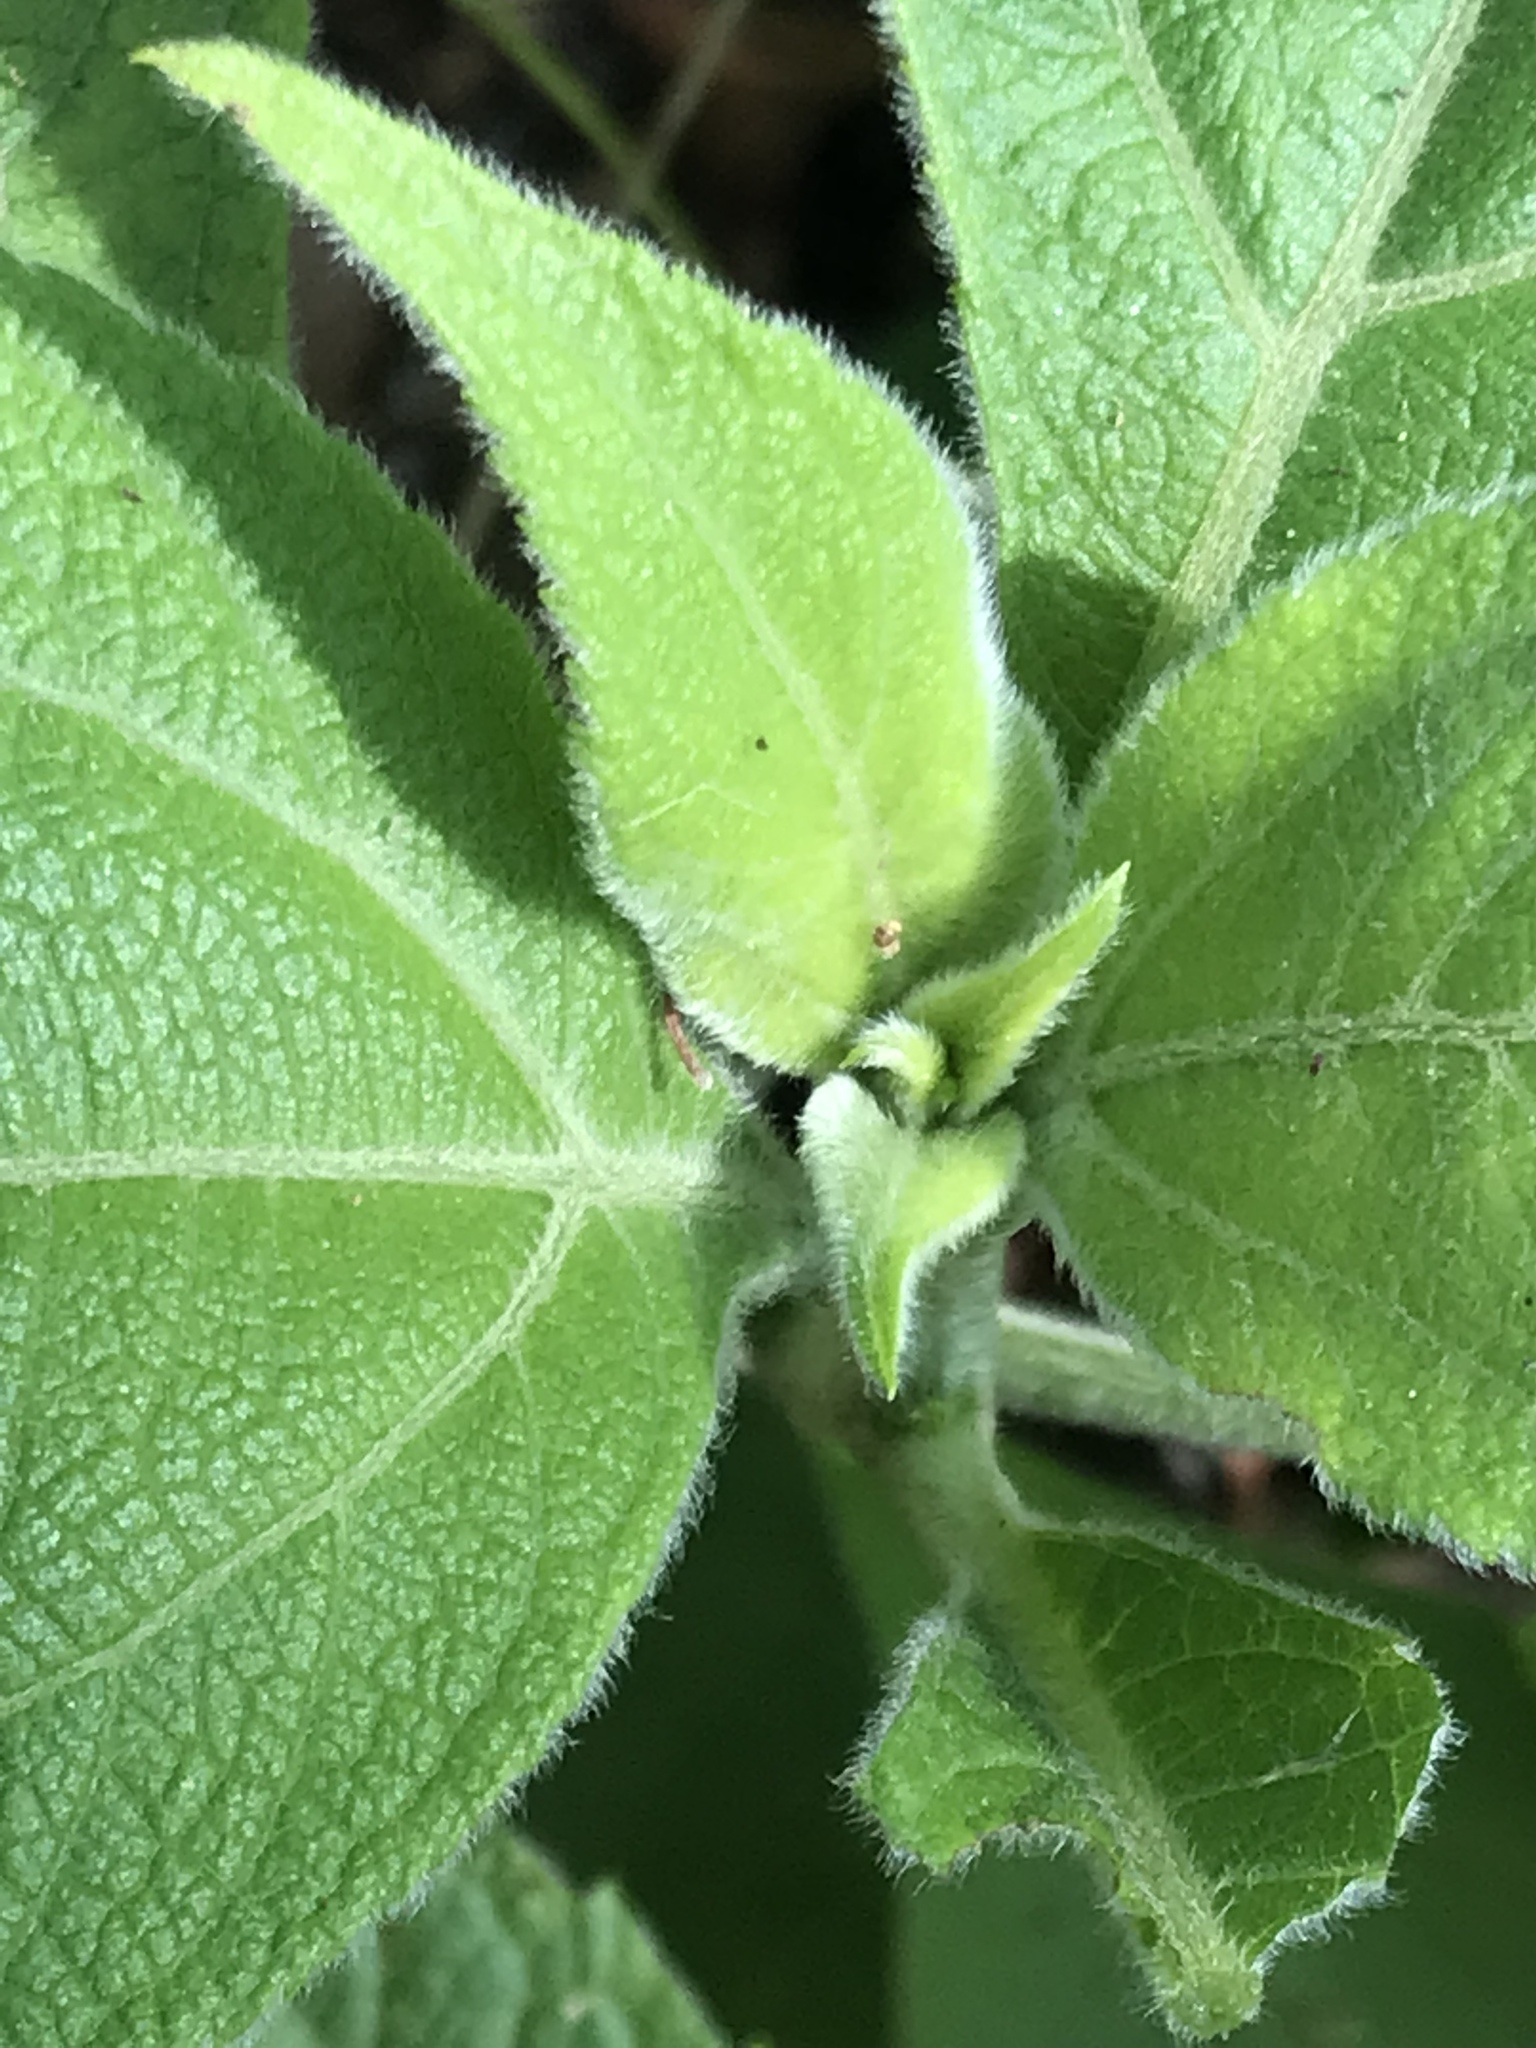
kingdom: Plantae
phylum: Tracheophyta
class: Magnoliopsida
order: Lamiales
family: Scrophulariaceae
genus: Buddleja
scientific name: Buddleja cordata
